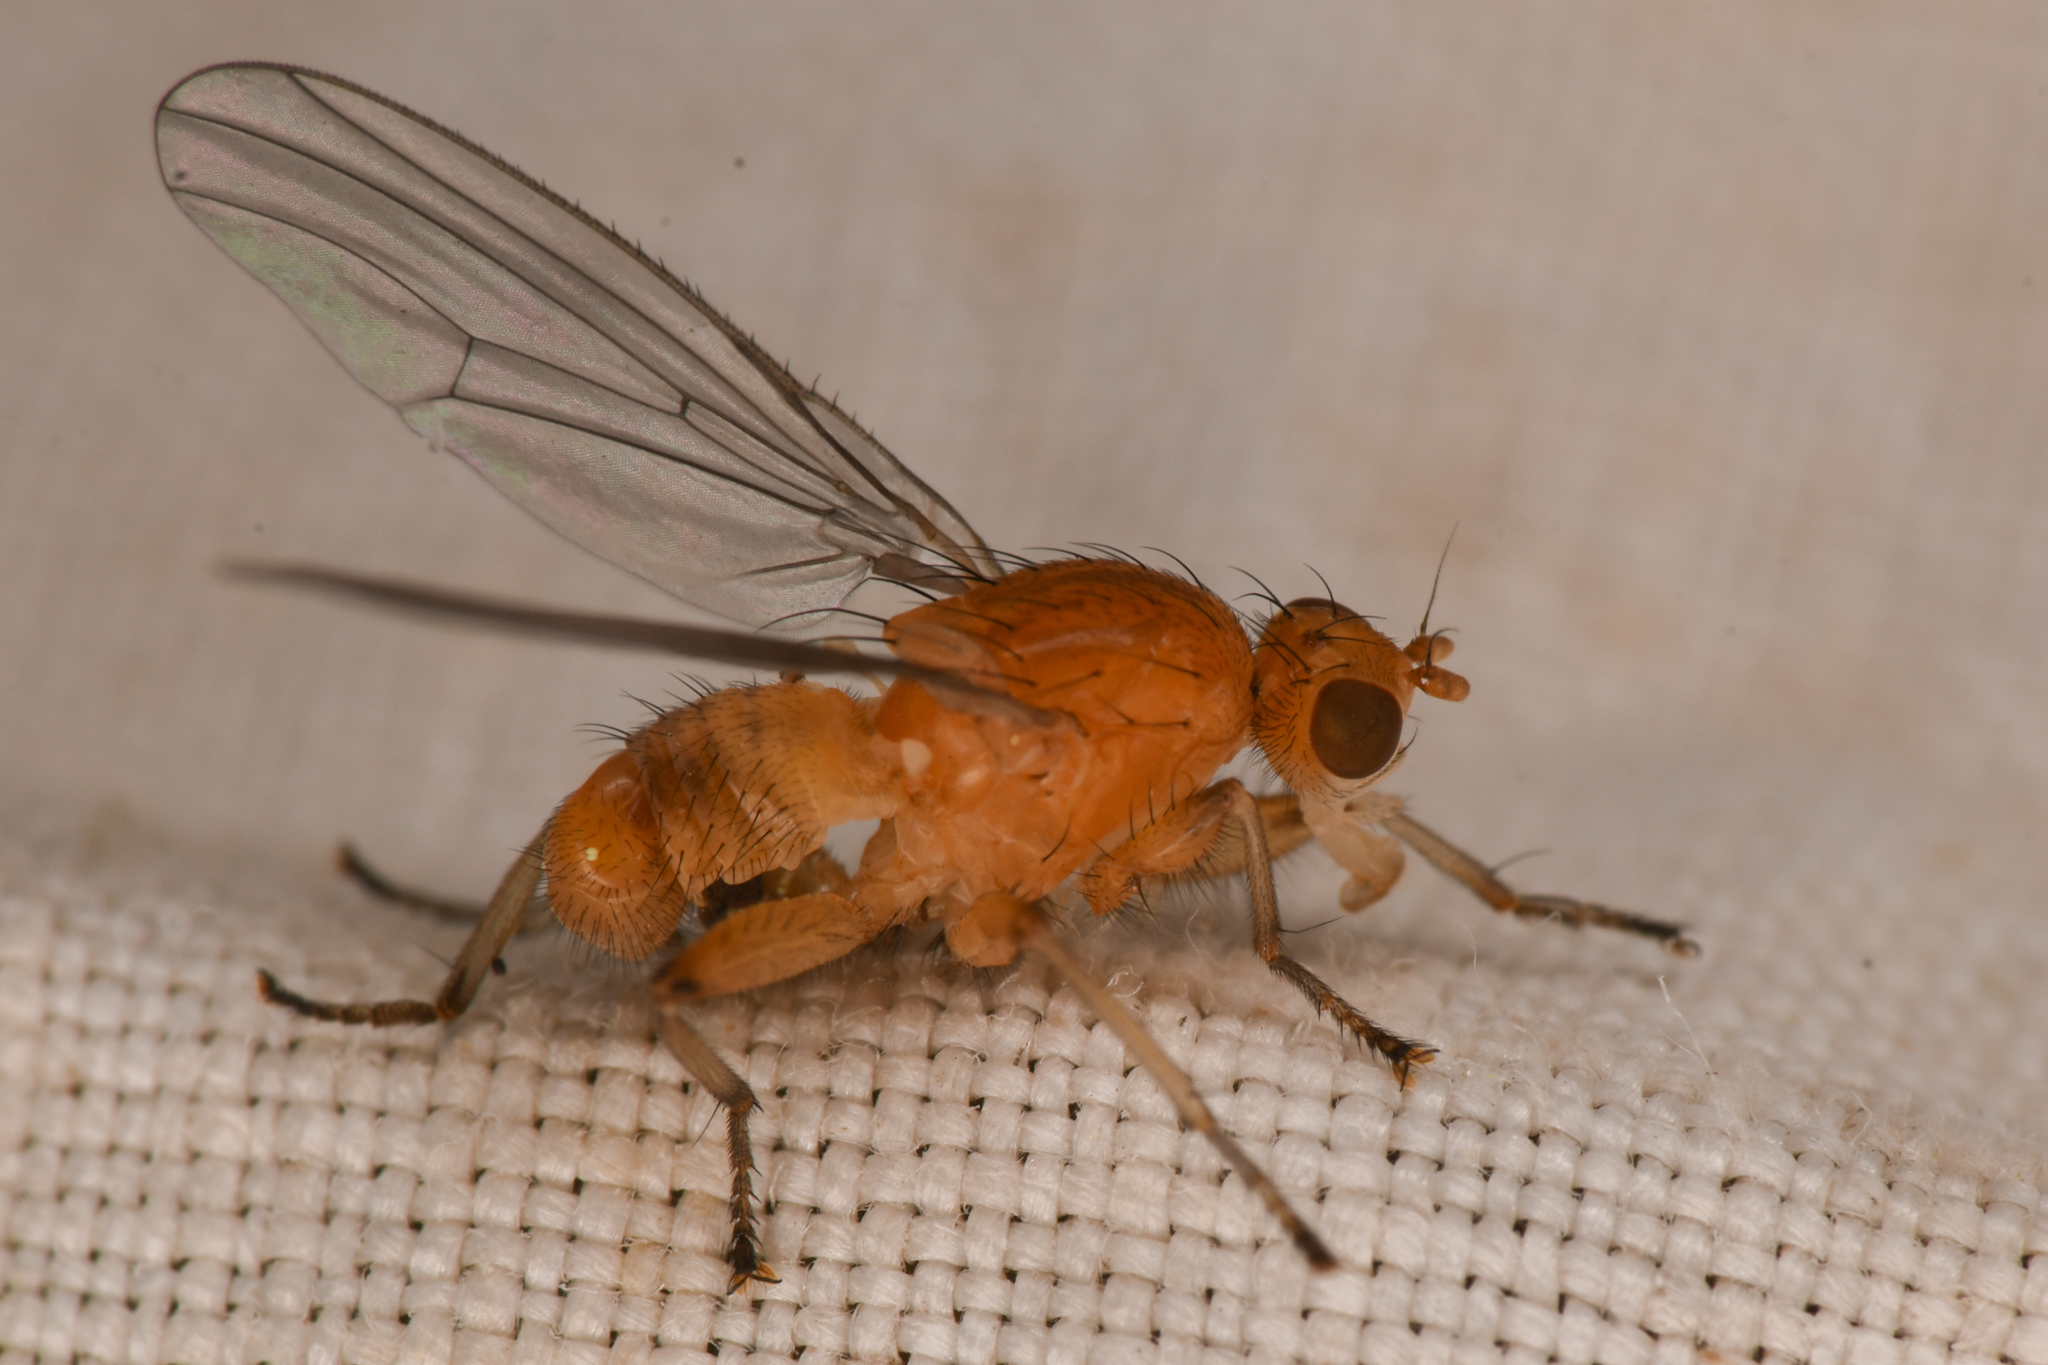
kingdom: Animalia
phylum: Arthropoda
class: Insecta
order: Diptera
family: Heleomyzidae
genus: Suillia
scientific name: Suillia convergens
